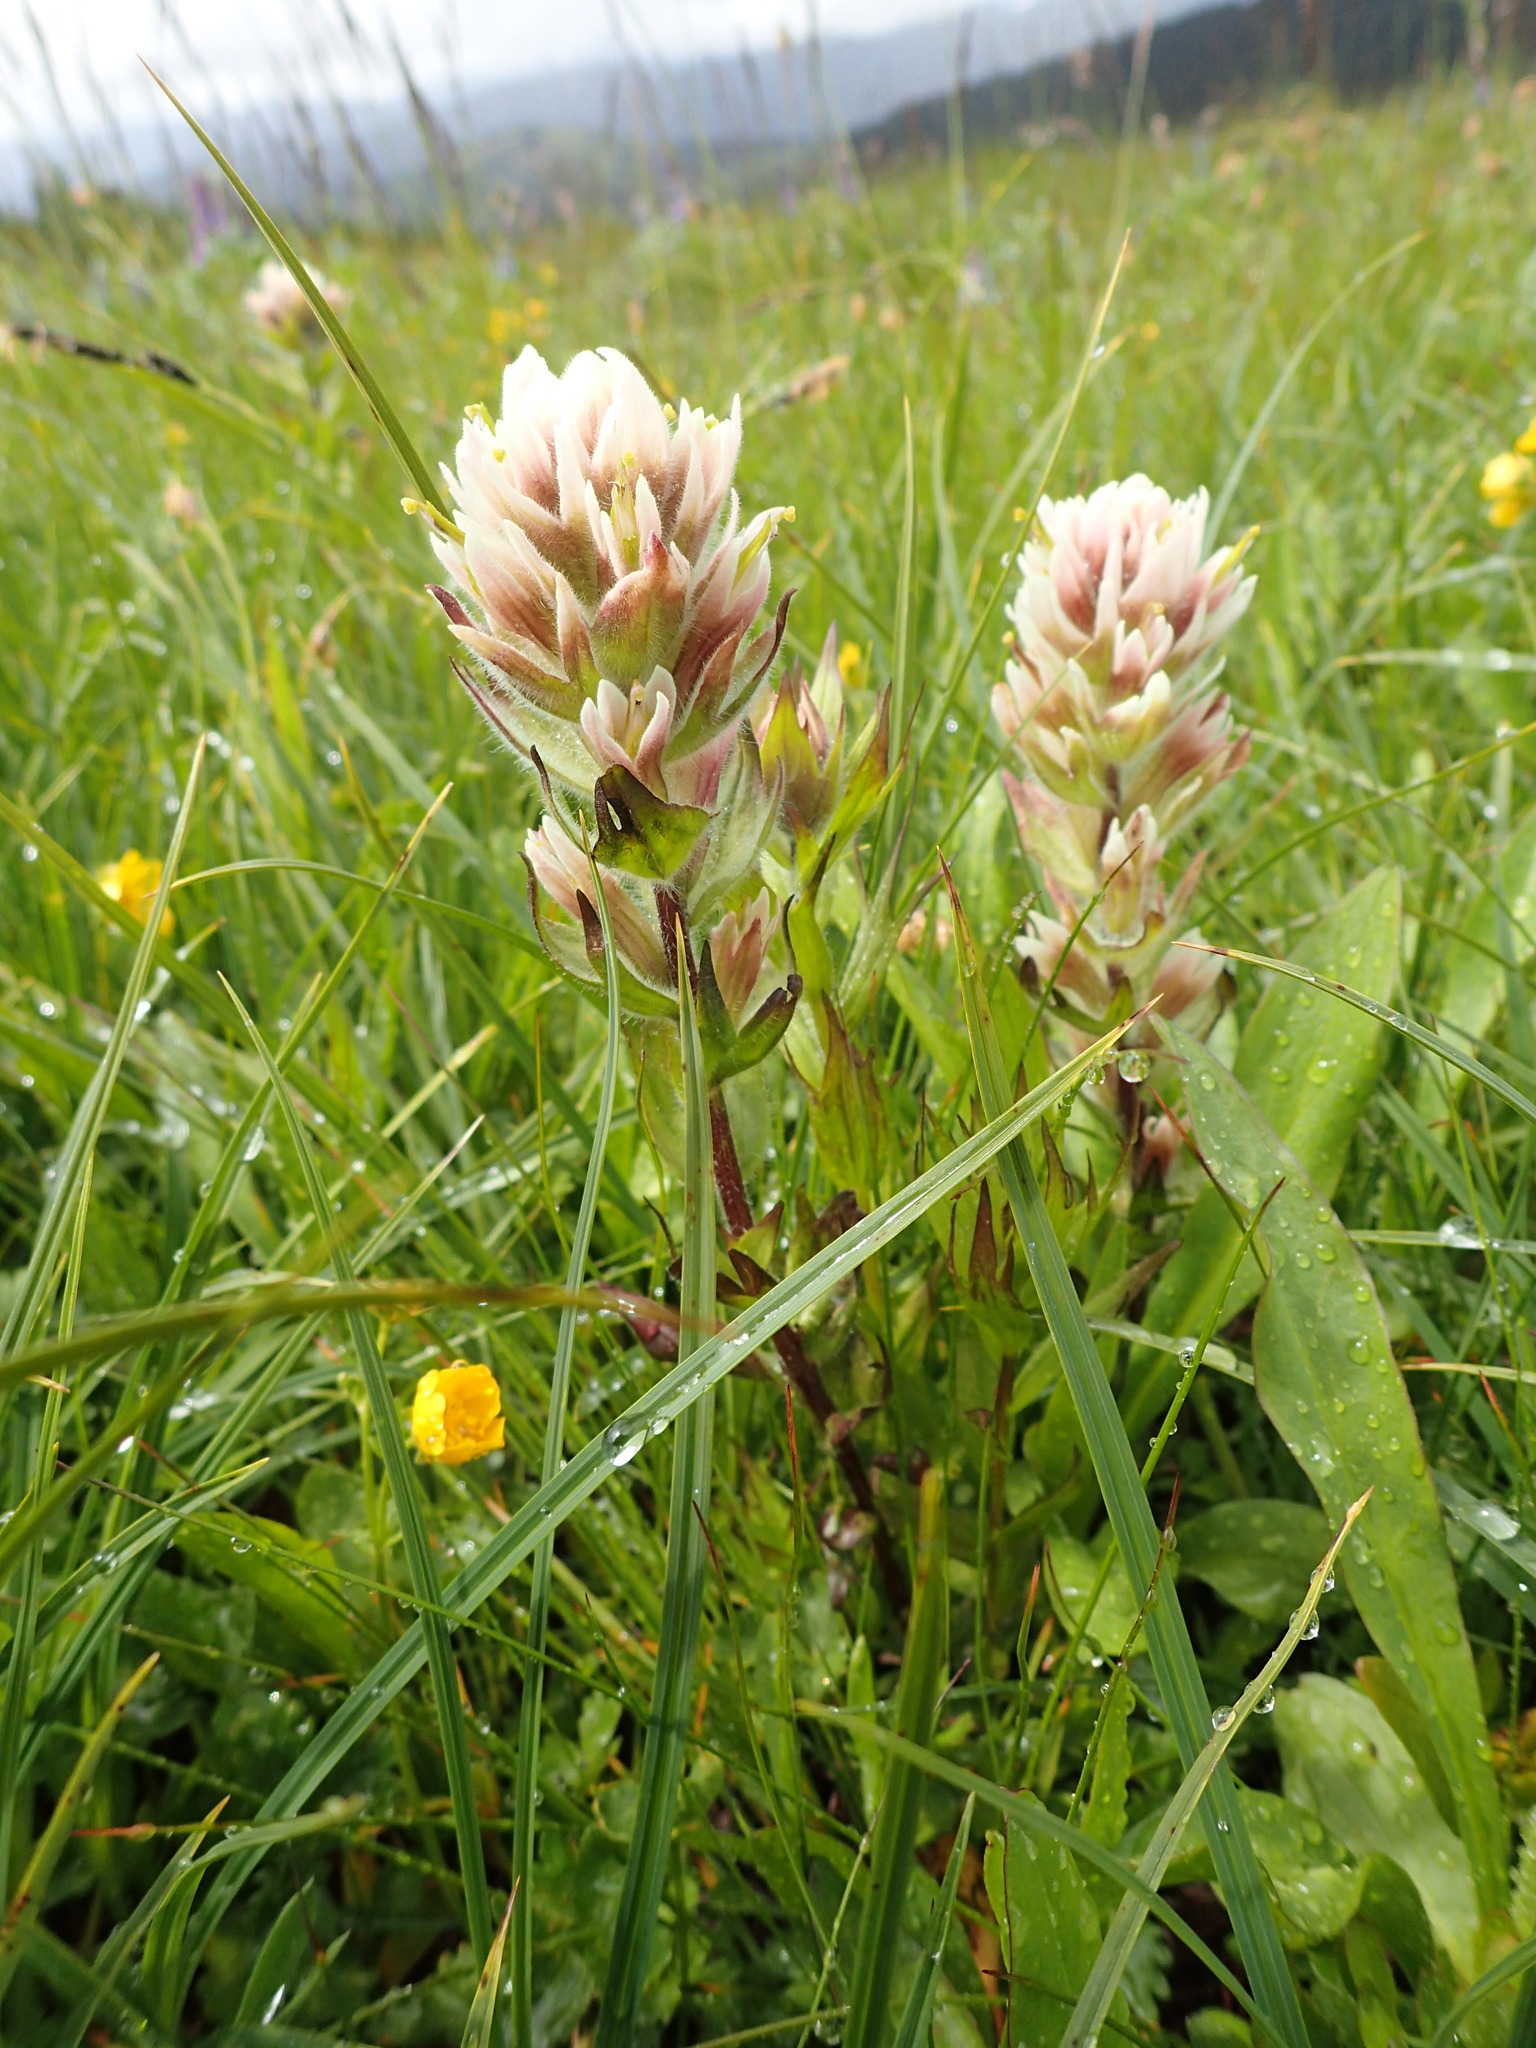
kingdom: Plantae
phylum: Tracheophyta
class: Magnoliopsida
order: Lamiales
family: Orobanchaceae
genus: Castilleja
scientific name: Castilleja parviflora
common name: Mountain paintbrush
